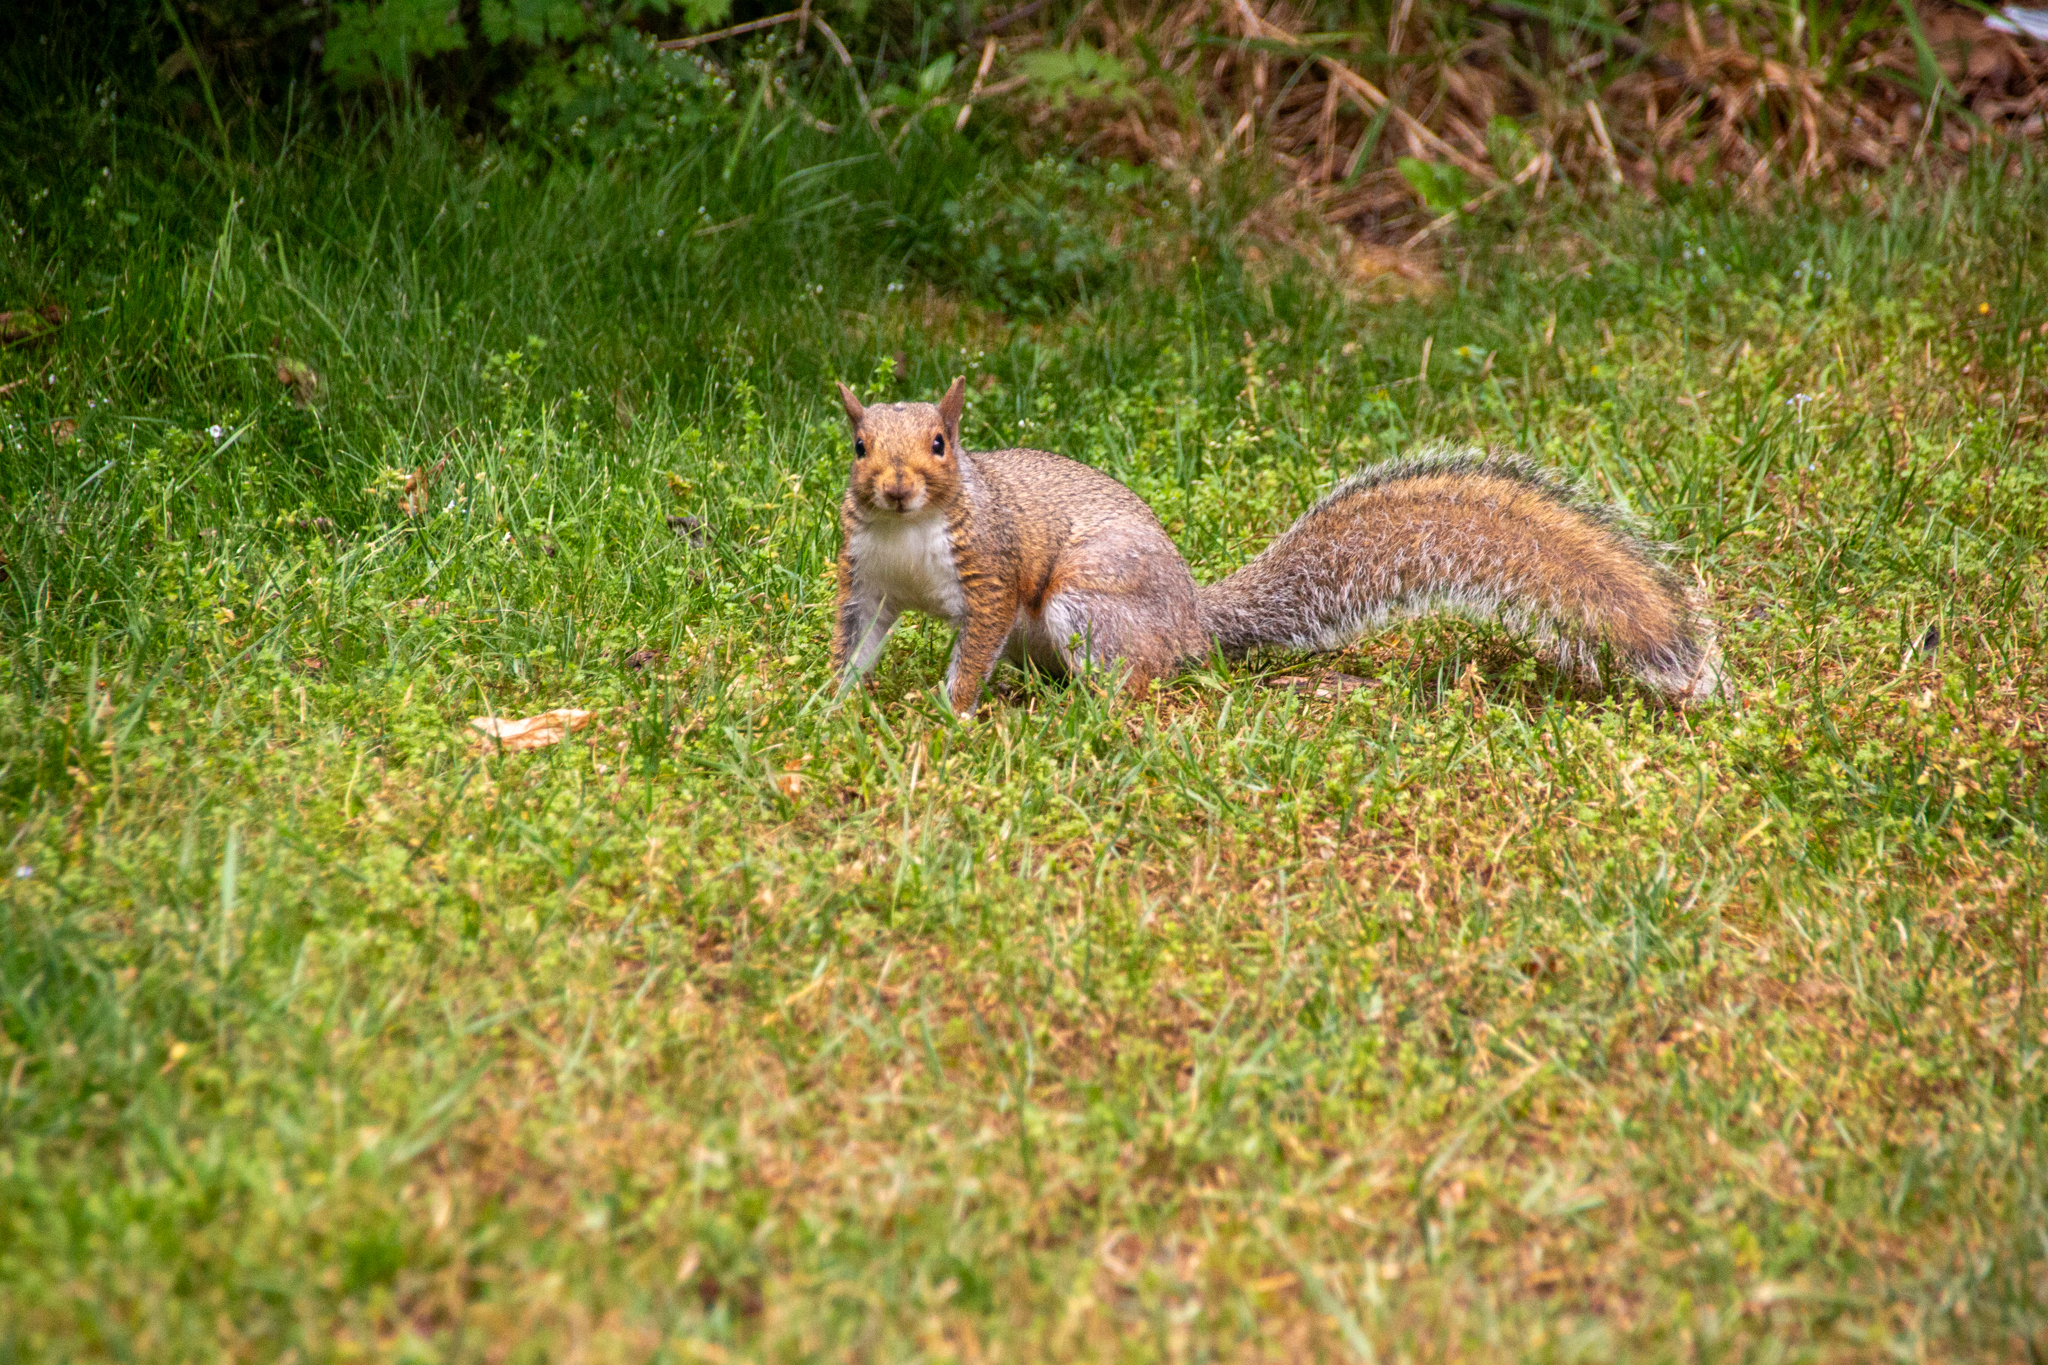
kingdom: Animalia
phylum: Chordata
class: Mammalia
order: Rodentia
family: Sciuridae
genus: Sciurus
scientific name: Sciurus carolinensis
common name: Eastern gray squirrel
